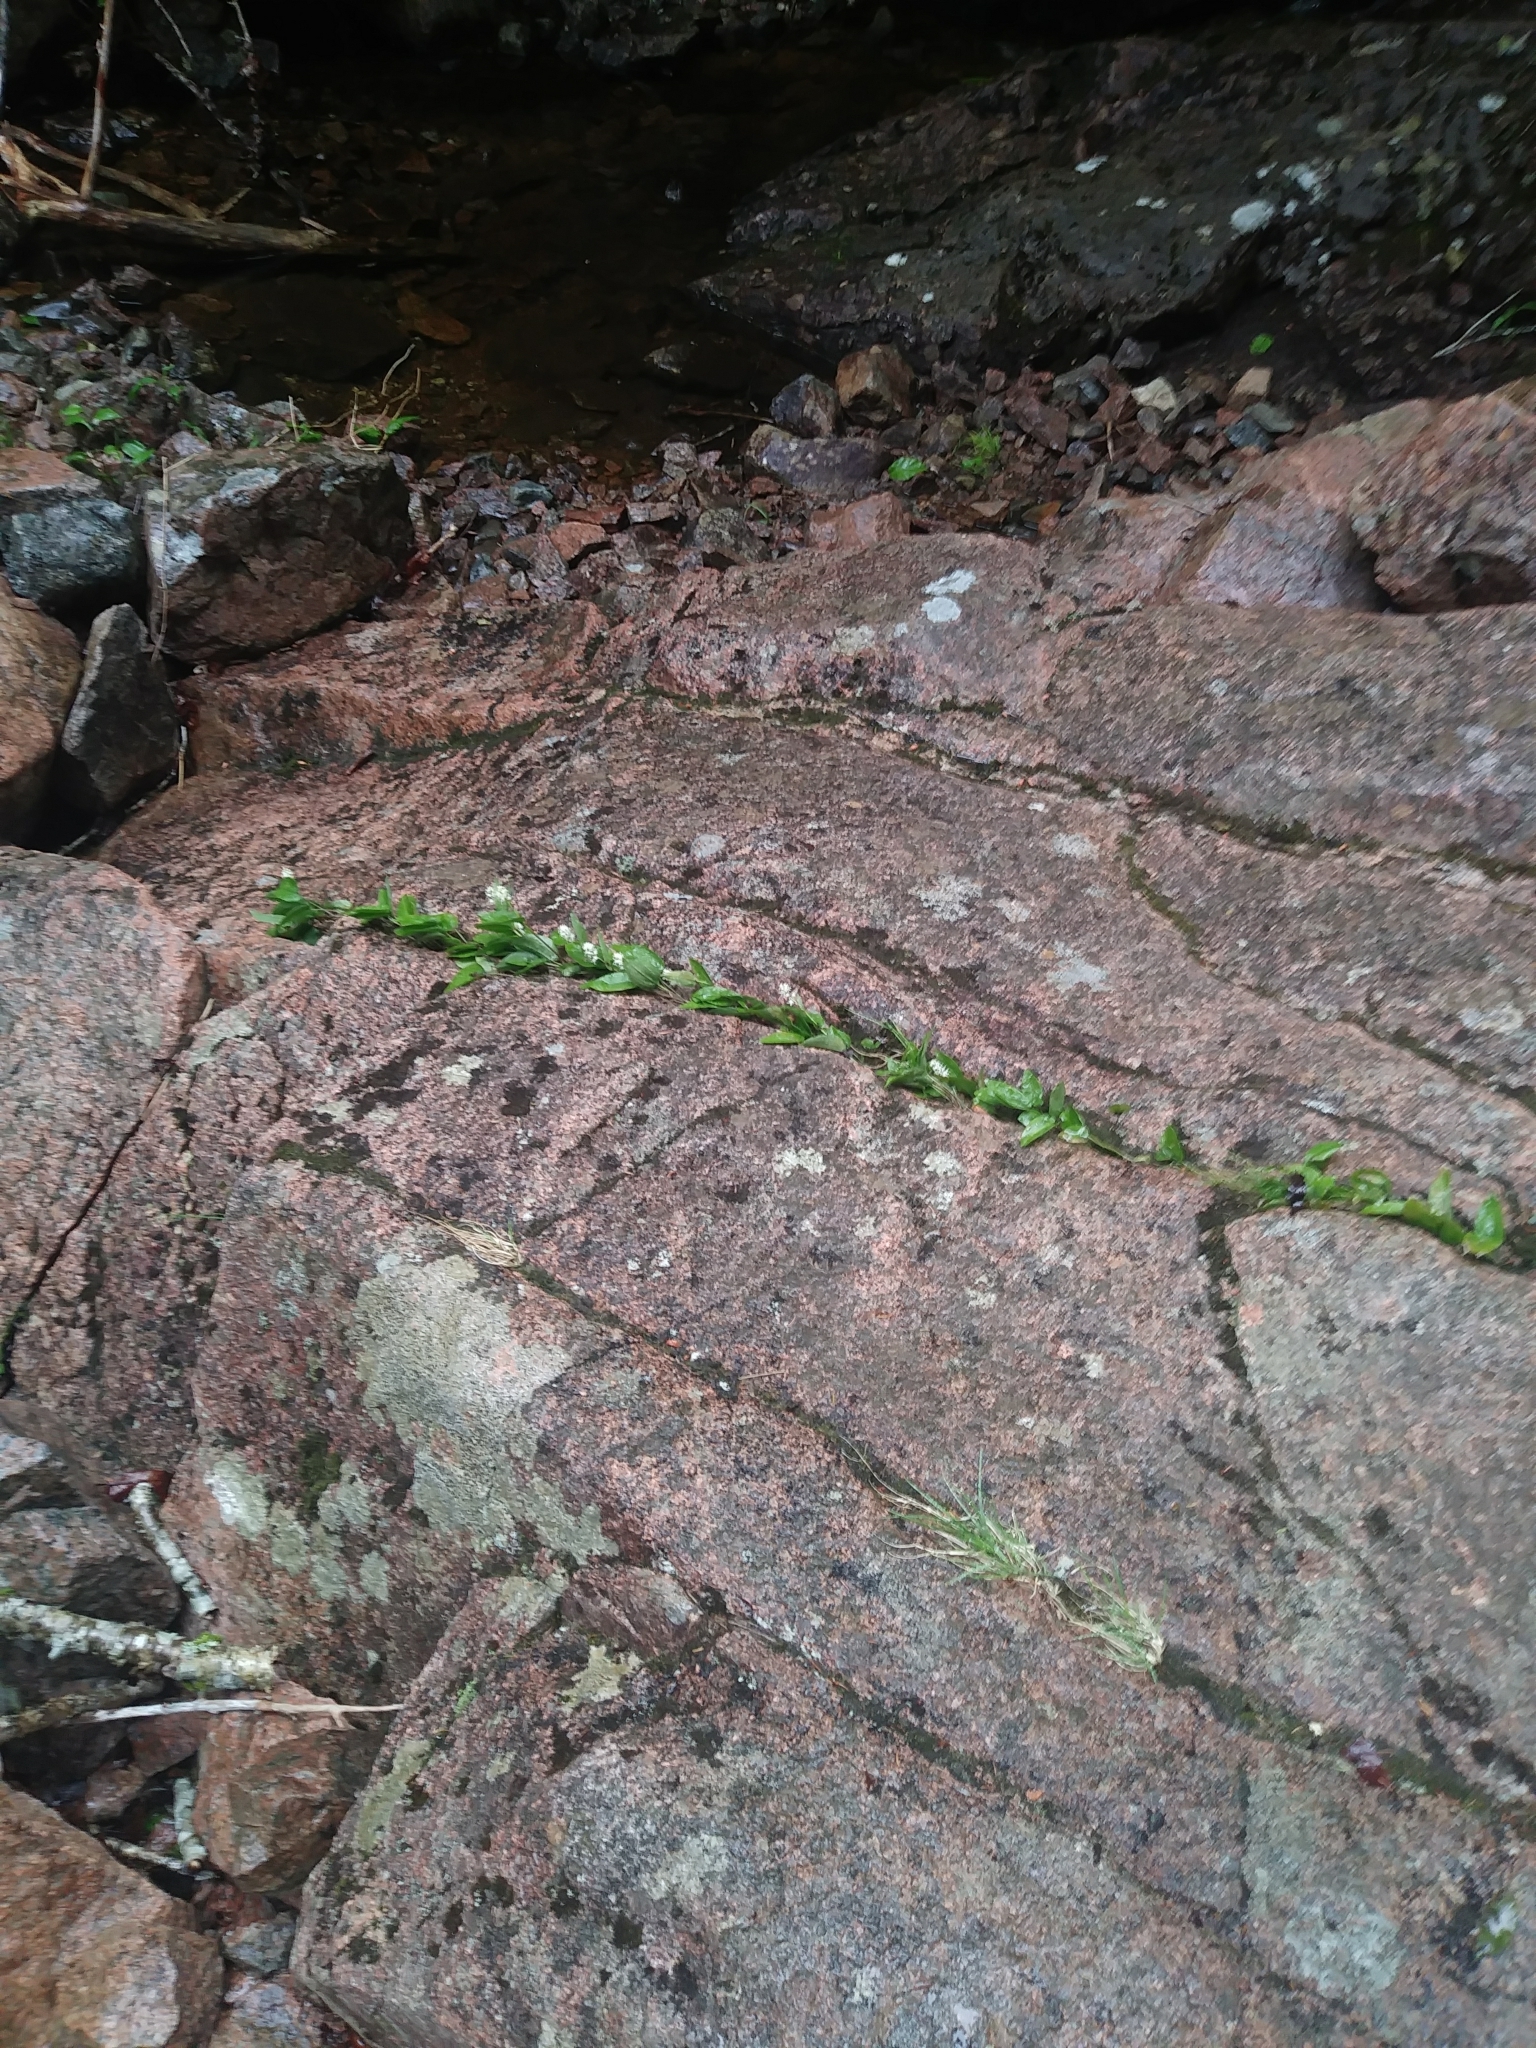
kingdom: Plantae
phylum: Tracheophyta
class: Liliopsida
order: Asparagales
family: Asparagaceae
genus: Maianthemum
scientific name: Maianthemum canadense
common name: False lily-of-the-valley
